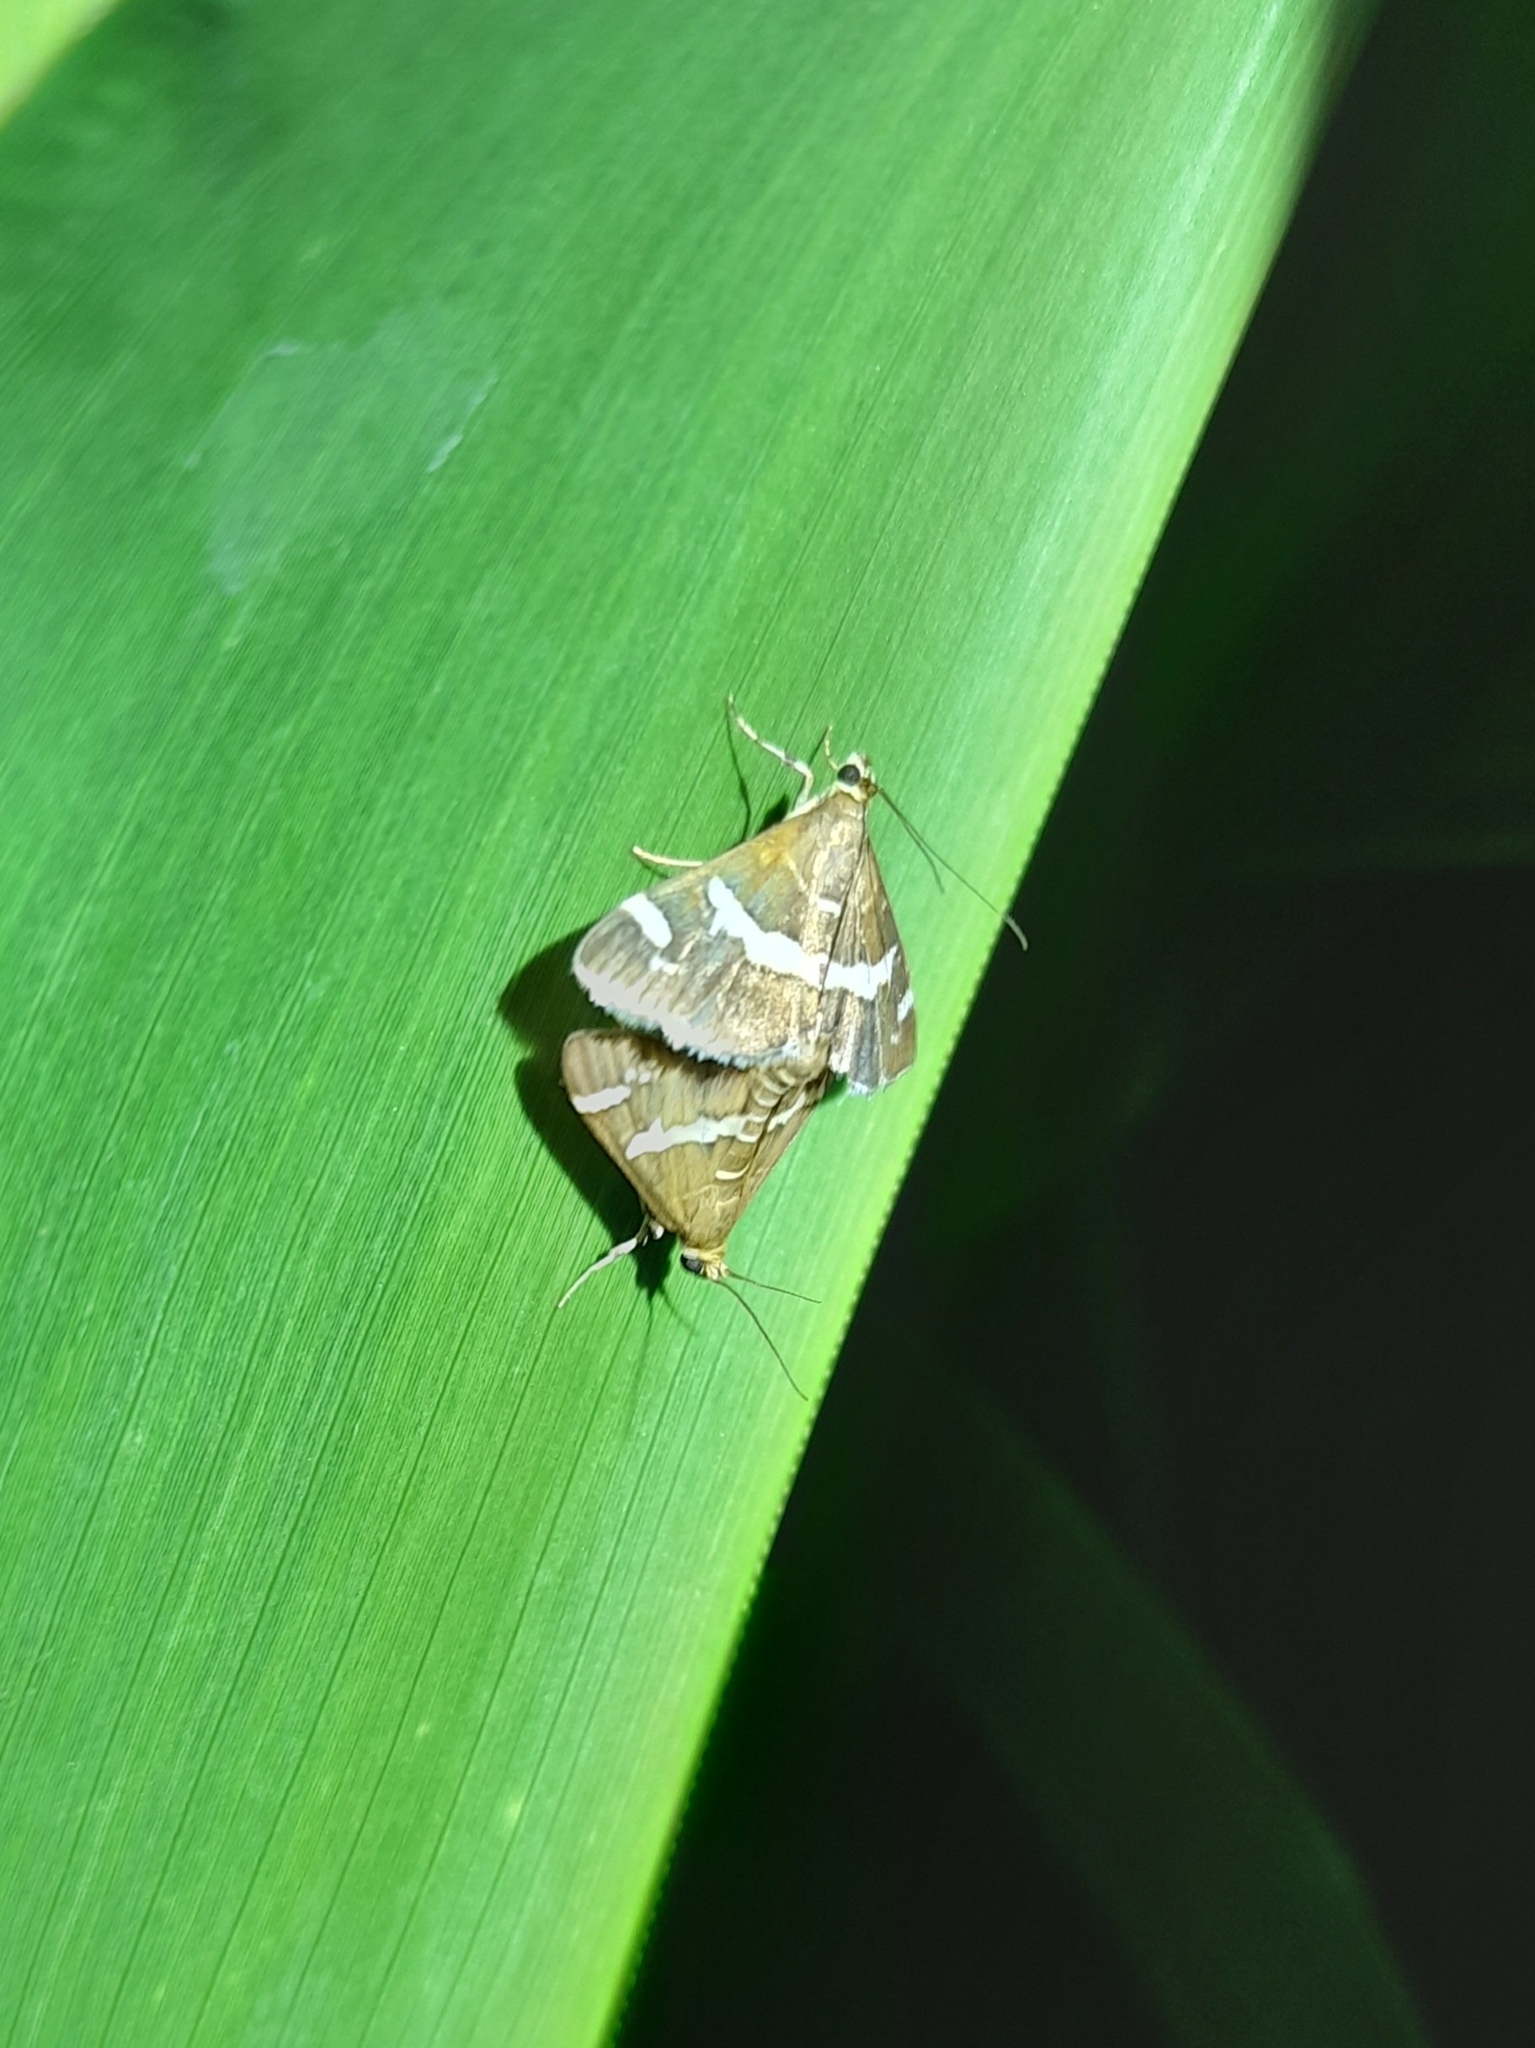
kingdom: Animalia
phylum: Arthropoda
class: Insecta
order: Lepidoptera
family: Crambidae
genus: Spoladea
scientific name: Spoladea recurvalis
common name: Beet webworm moth
